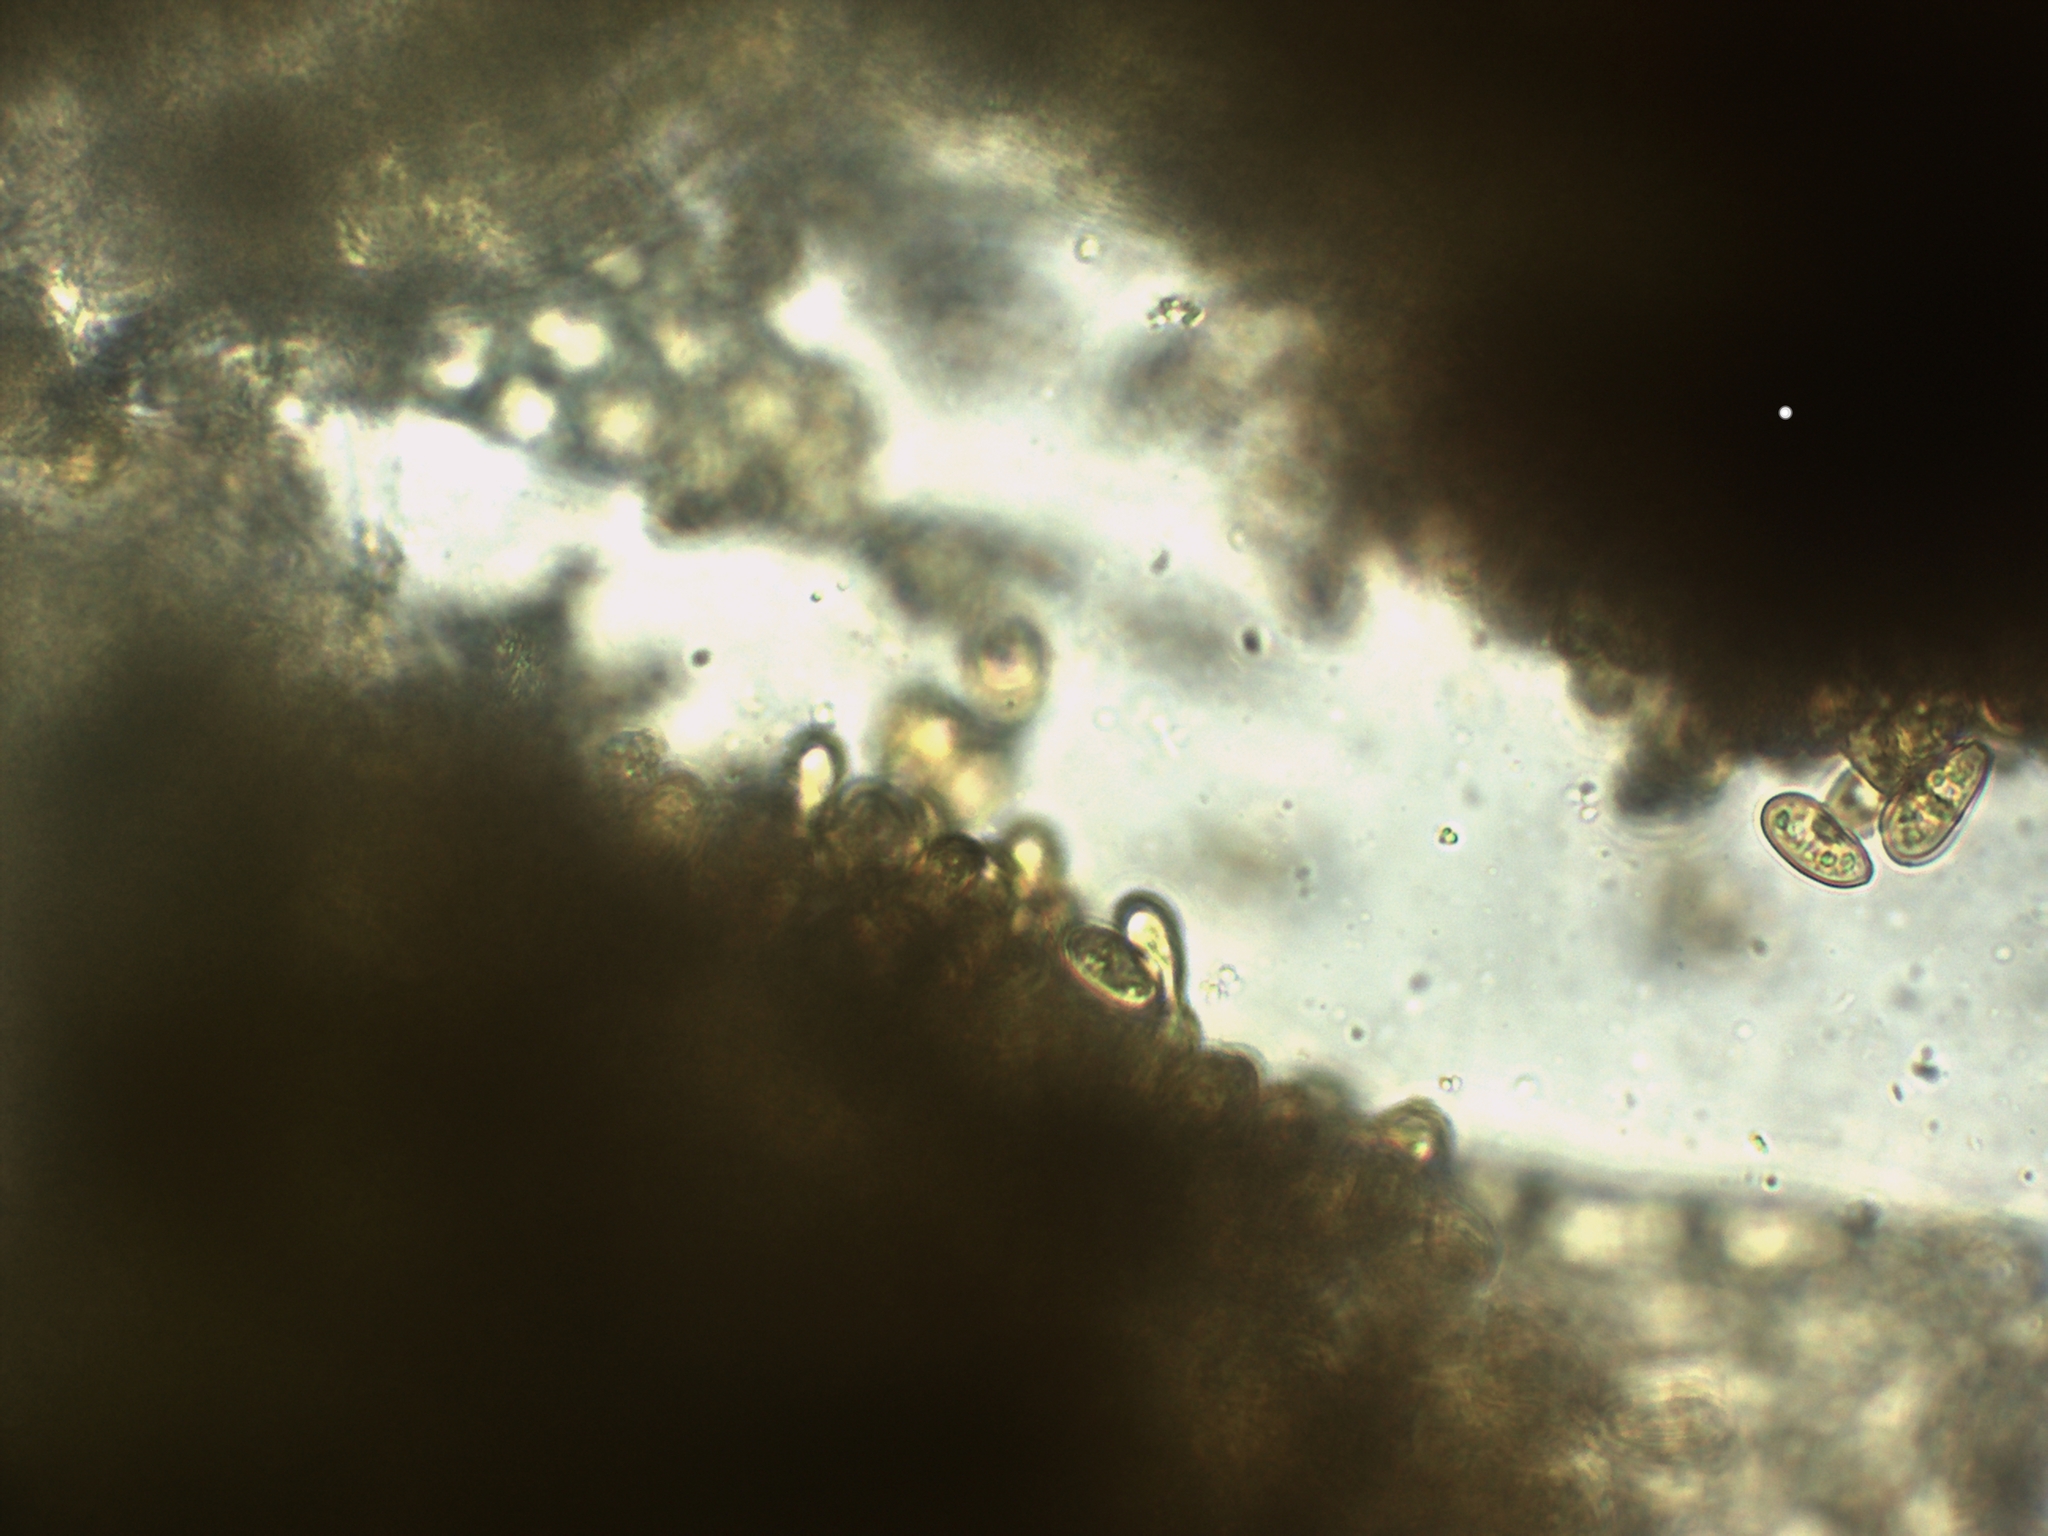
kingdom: Plantae
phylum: Marchantiophyta
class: Jungermanniopsida
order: Jungermanniales
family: Lophoziaceae
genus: Tritomaria
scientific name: Tritomaria exsecta
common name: Cut notchwort
